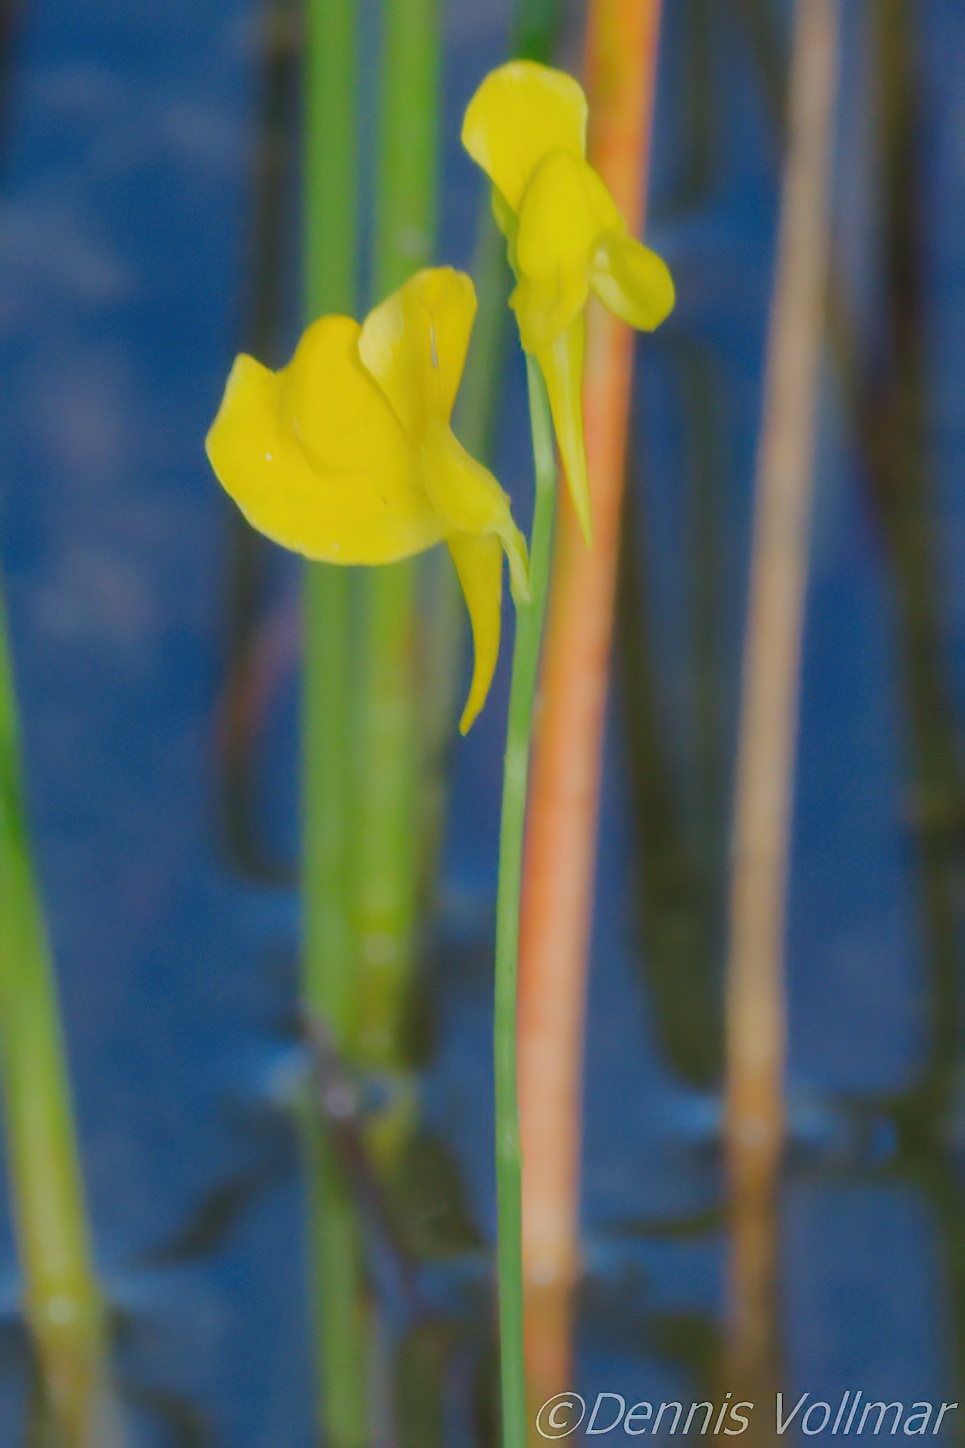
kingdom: Plantae
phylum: Tracheophyta
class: Magnoliopsida
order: Lamiales
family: Lentibulariaceae
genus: Utricularia
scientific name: Utricularia cornuta
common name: Horned bladderwort
